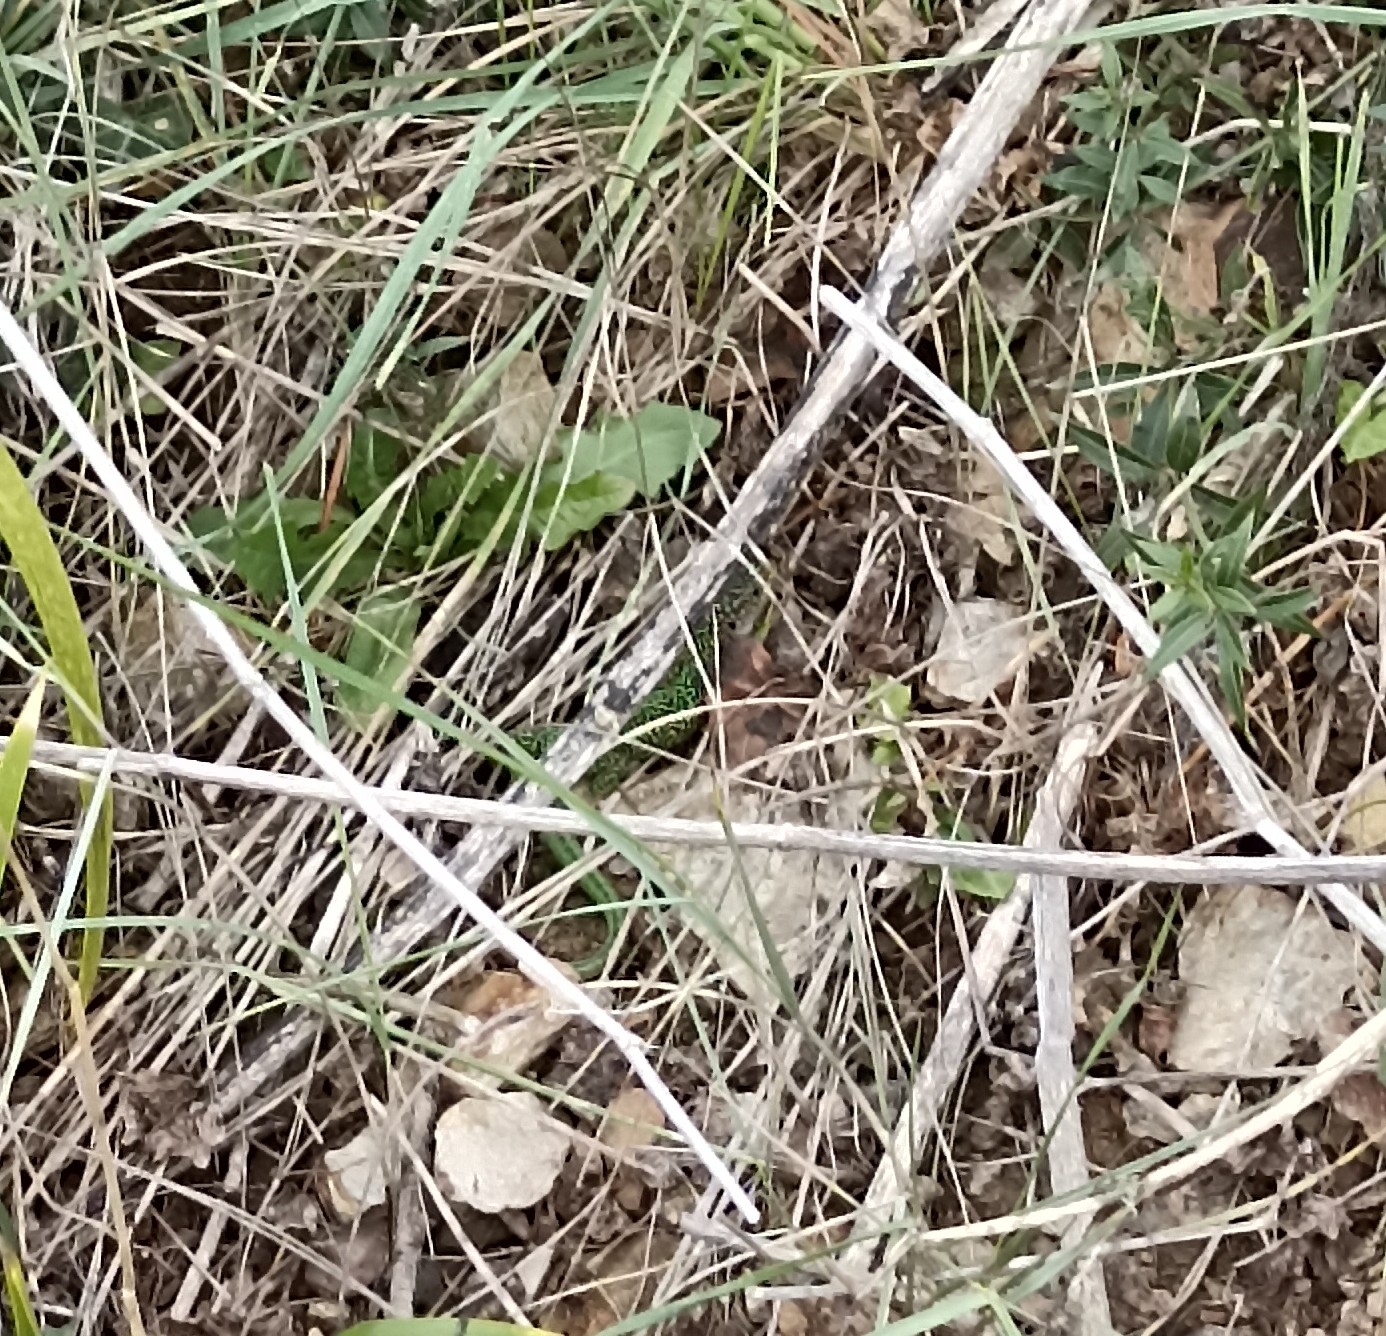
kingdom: Animalia
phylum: Chordata
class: Squamata
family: Lacertidae
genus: Lacerta
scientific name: Lacerta bilineata
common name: Western green lizard
